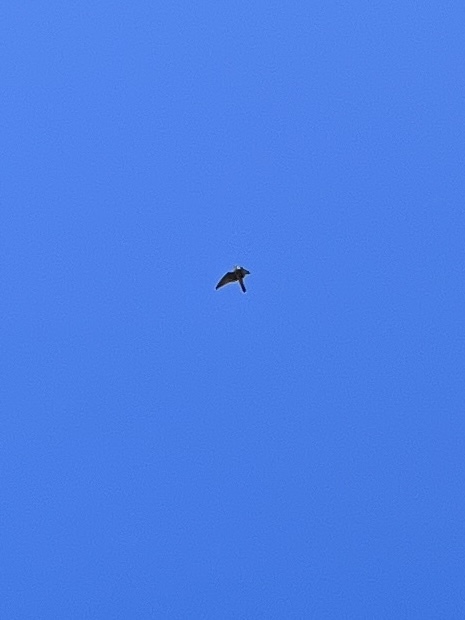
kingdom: Animalia
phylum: Chordata
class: Aves
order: Falconiformes
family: Falconidae
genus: Falco
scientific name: Falco columbarius
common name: Merlin
